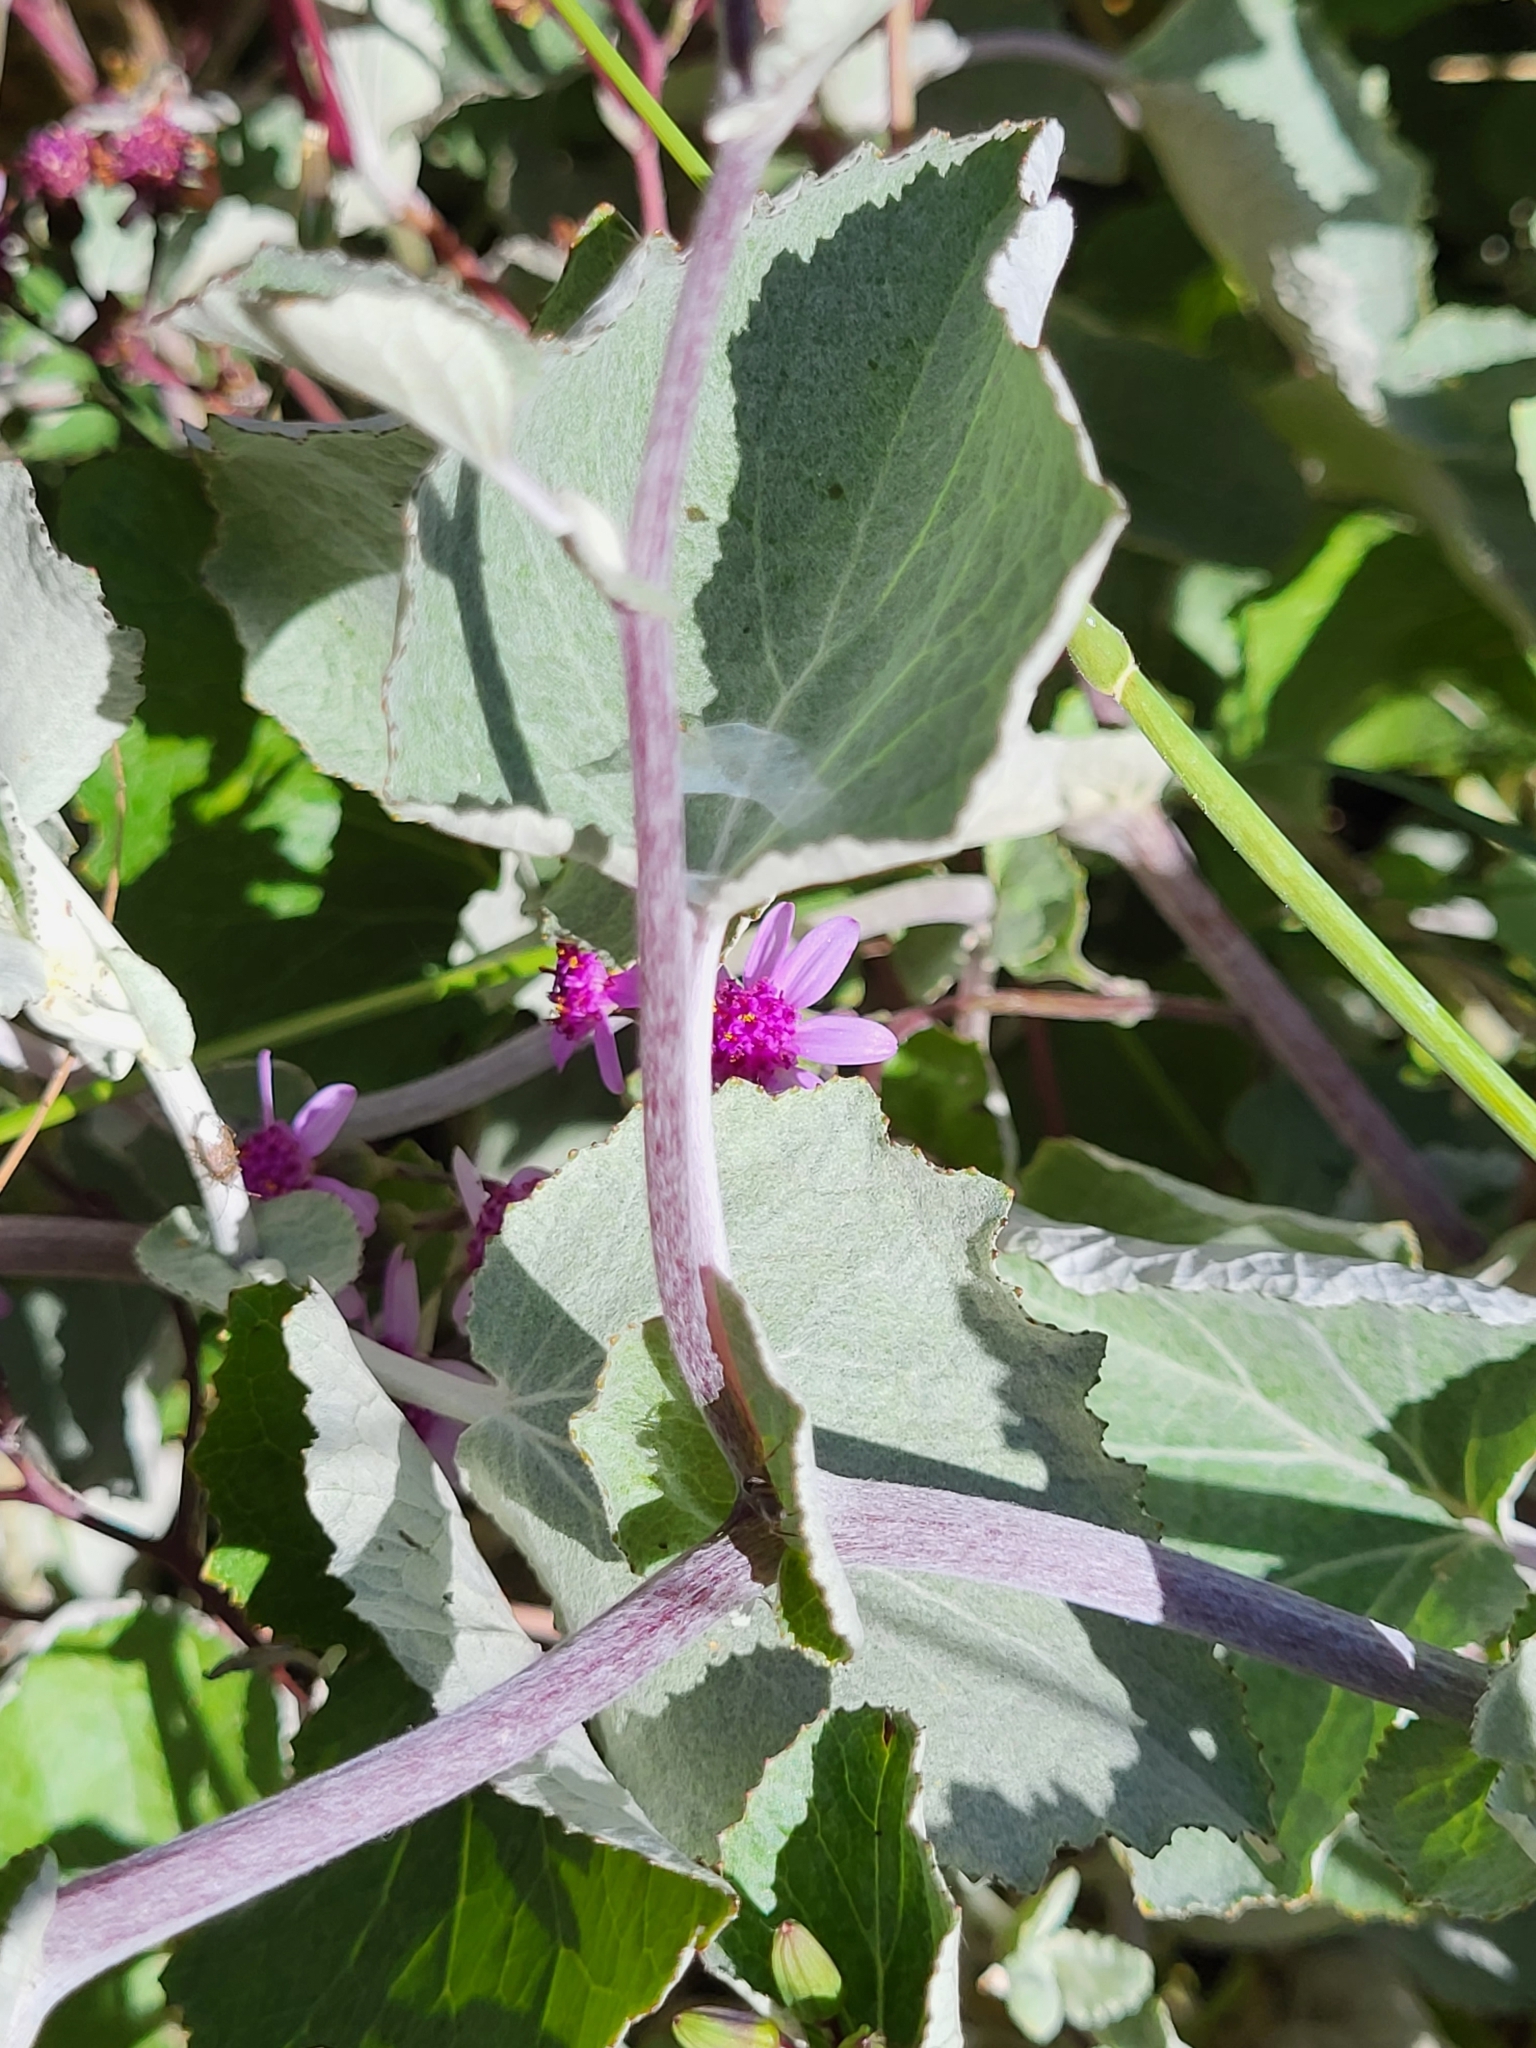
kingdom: Plantae
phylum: Tracheophyta
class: Magnoliopsida
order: Asterales
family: Asteraceae
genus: Pericallis
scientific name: Pericallis aurita
